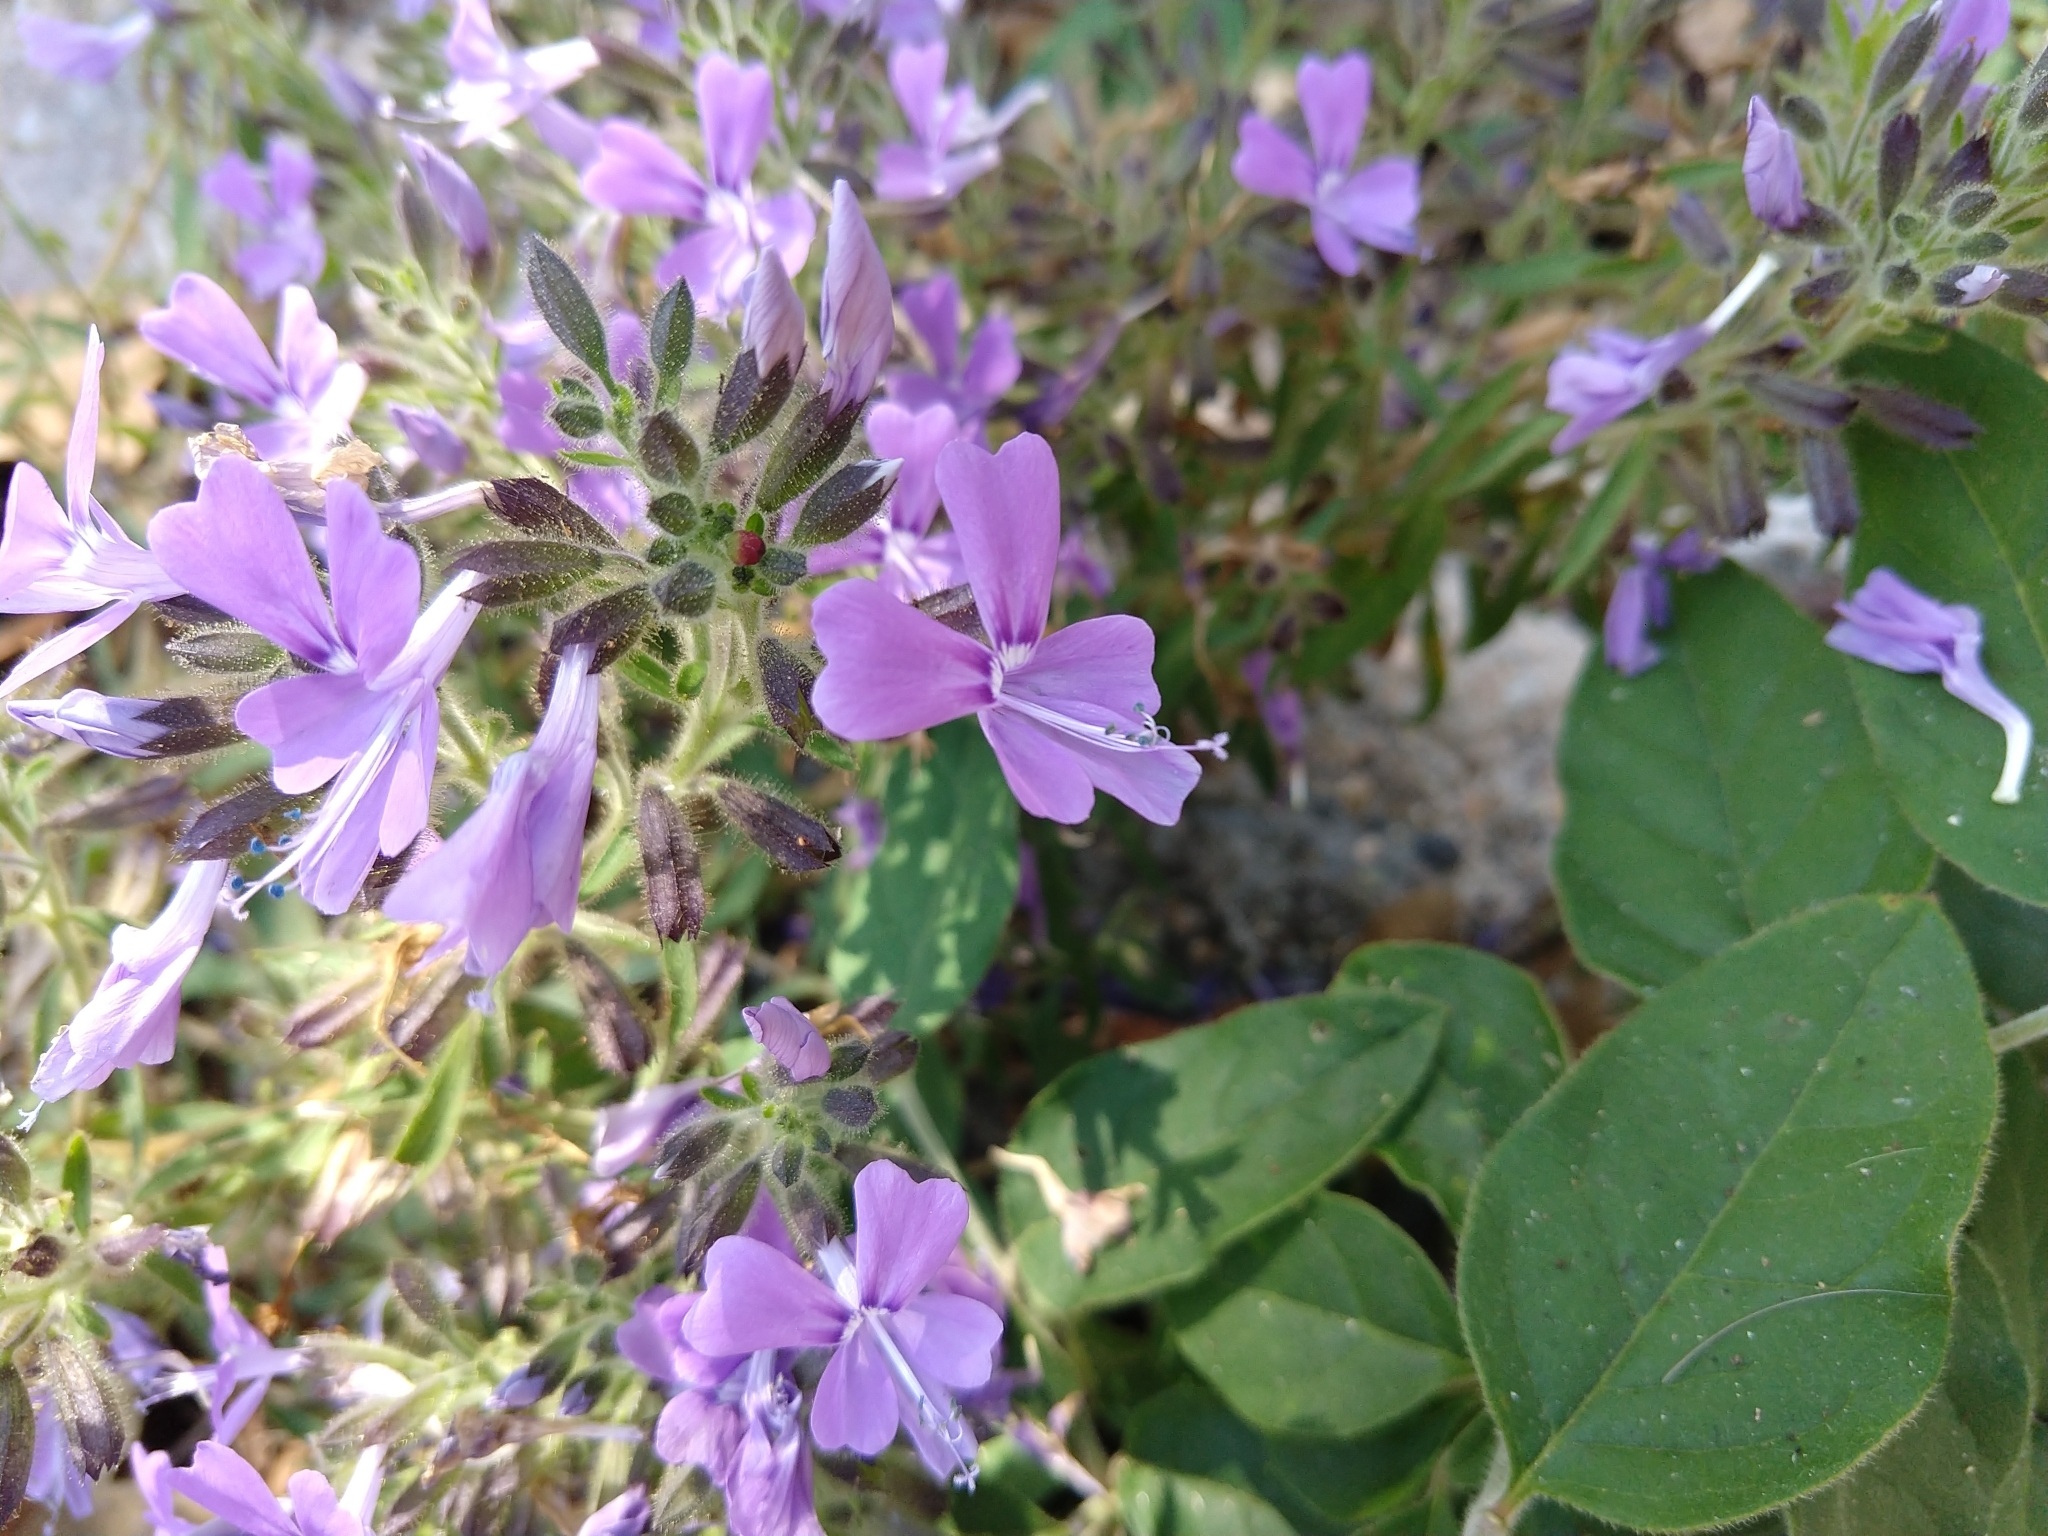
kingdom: Plantae
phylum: Tracheophyta
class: Magnoliopsida
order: Ericales
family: Polemoniaceae
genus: Bonplandia
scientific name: Bonplandia geminiflora
